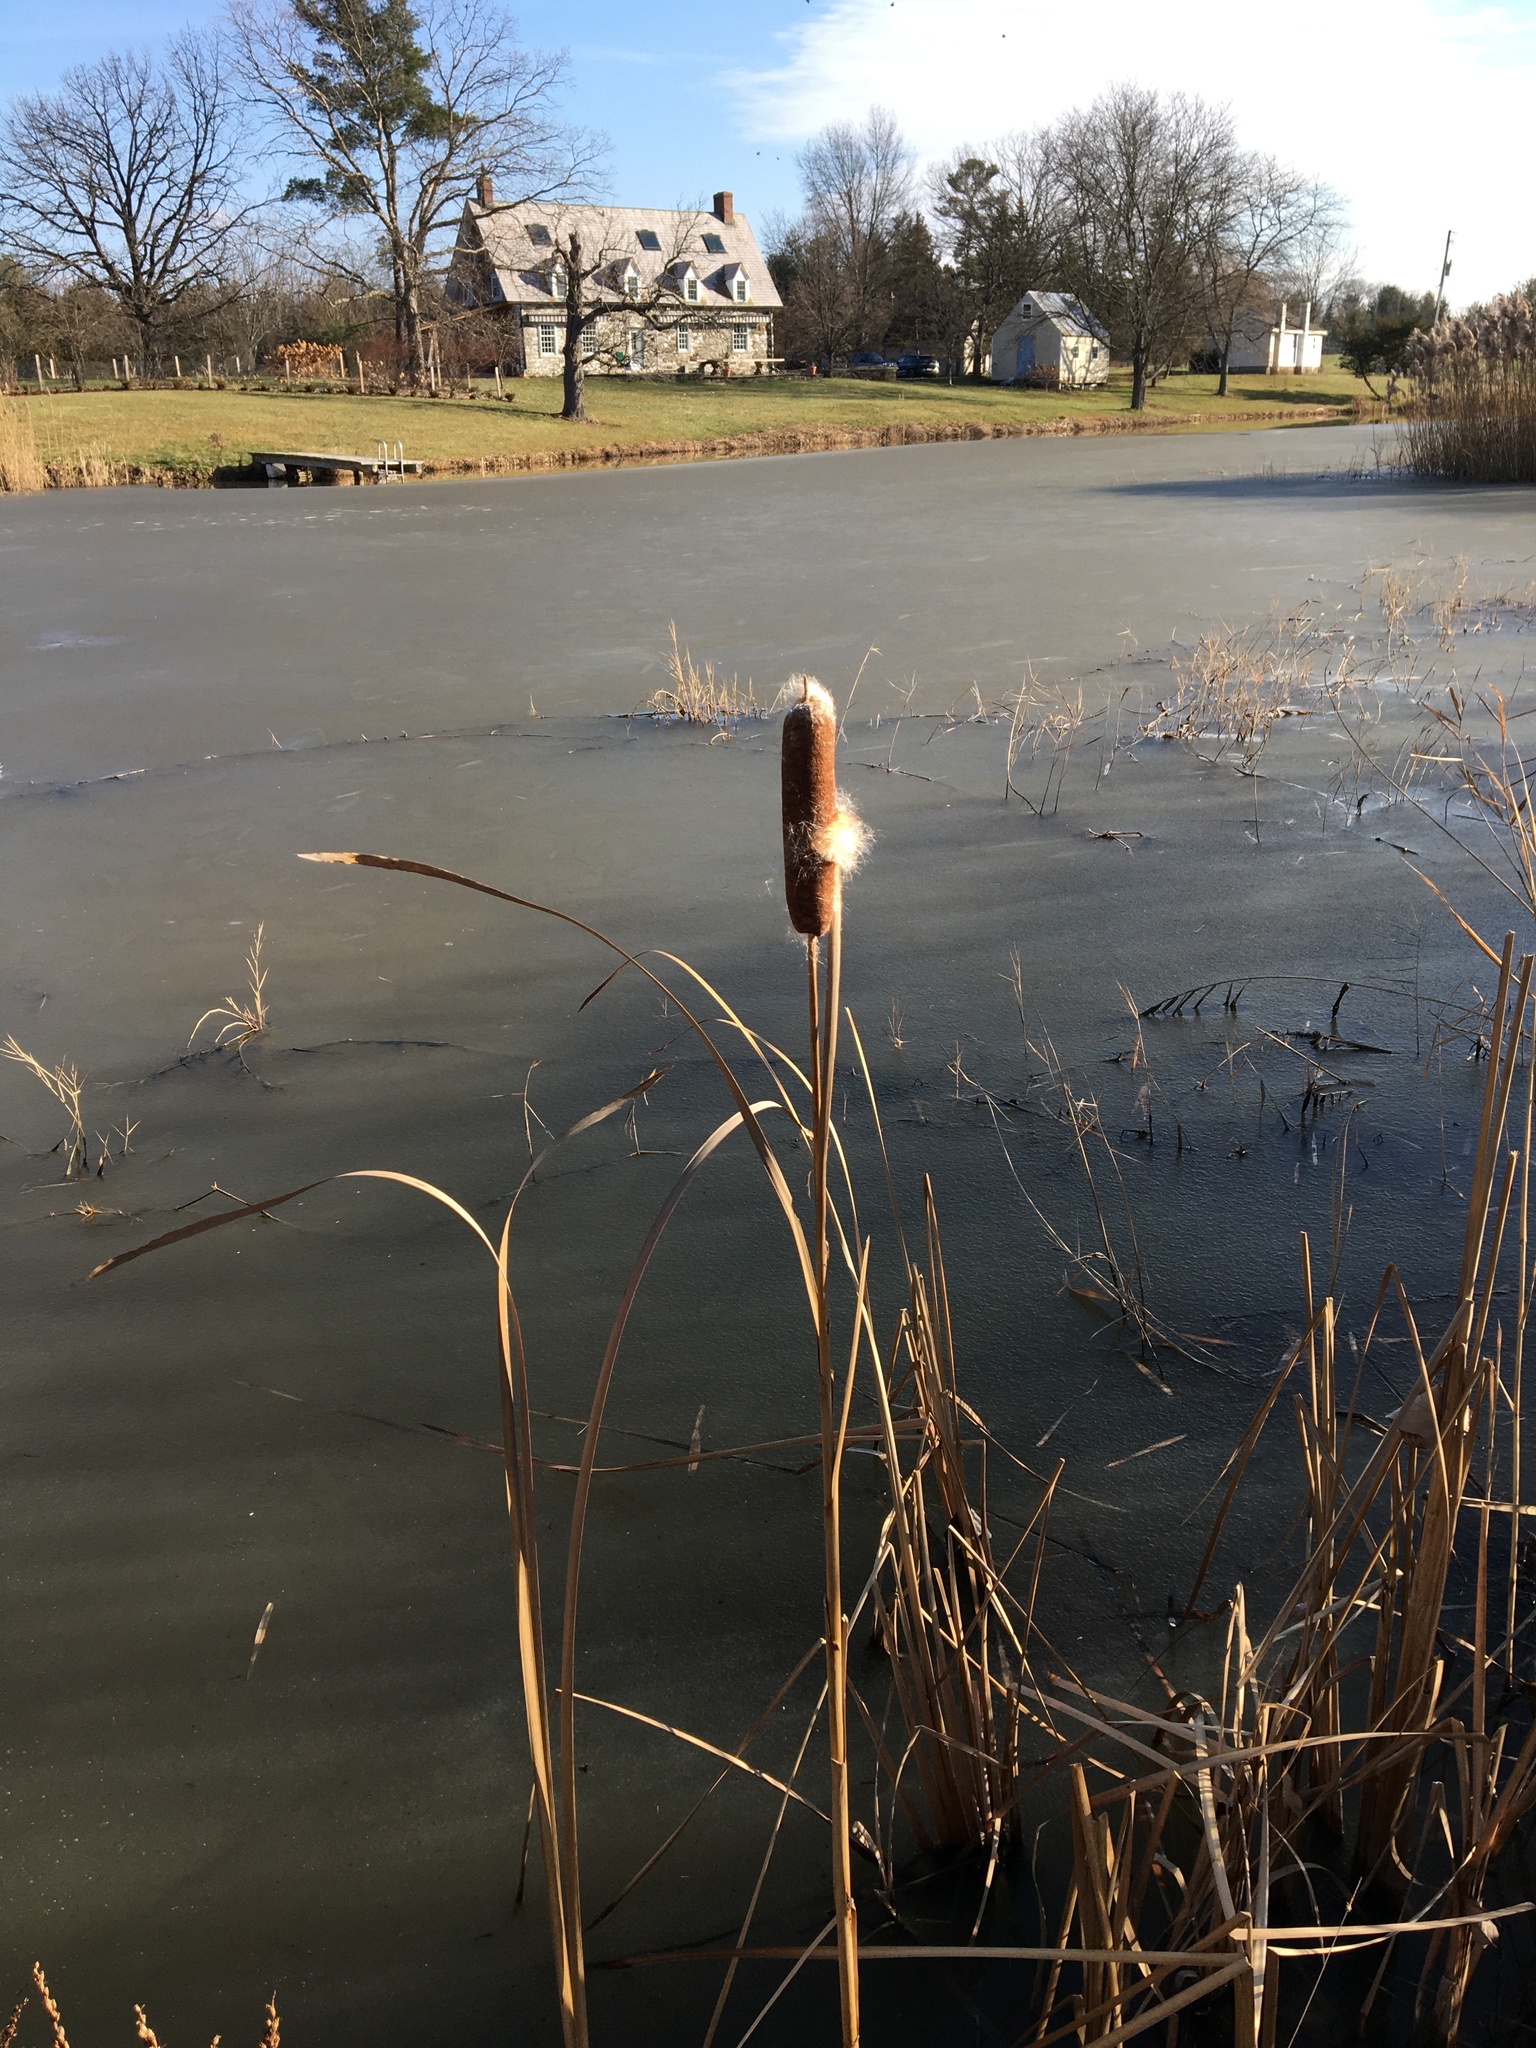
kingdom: Plantae
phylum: Tracheophyta
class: Liliopsida
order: Poales
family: Typhaceae
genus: Typha
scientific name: Typha
